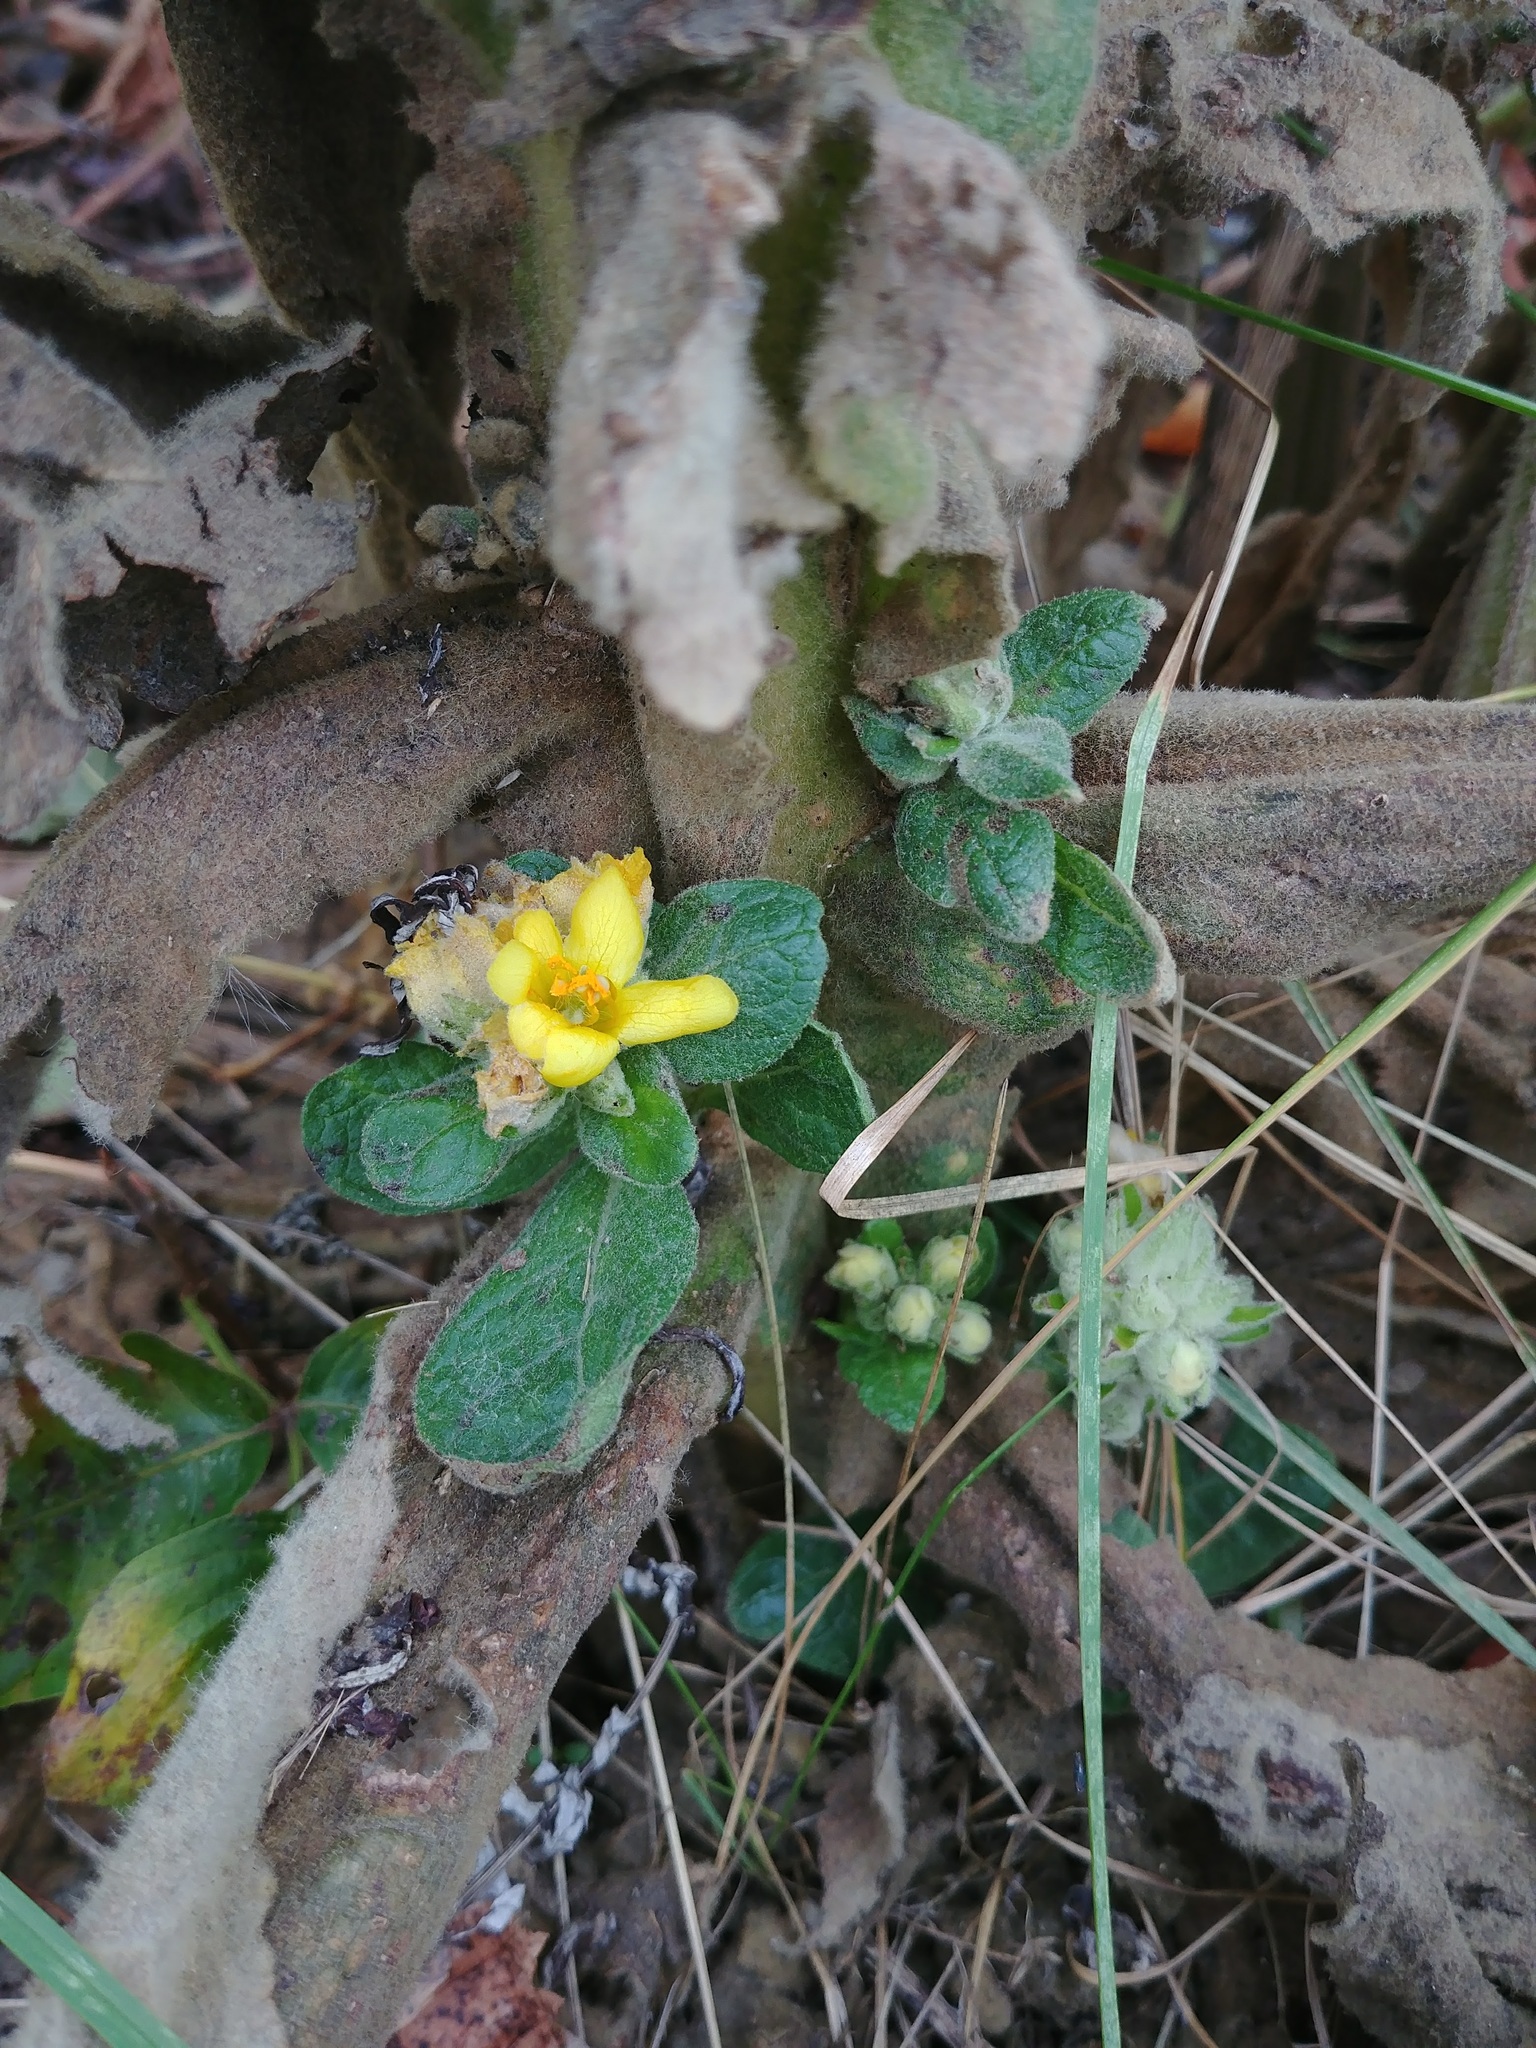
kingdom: Plantae
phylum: Tracheophyta
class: Magnoliopsida
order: Lamiales
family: Scrophulariaceae
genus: Verbascum
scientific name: Verbascum thapsus
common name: Common mullein
